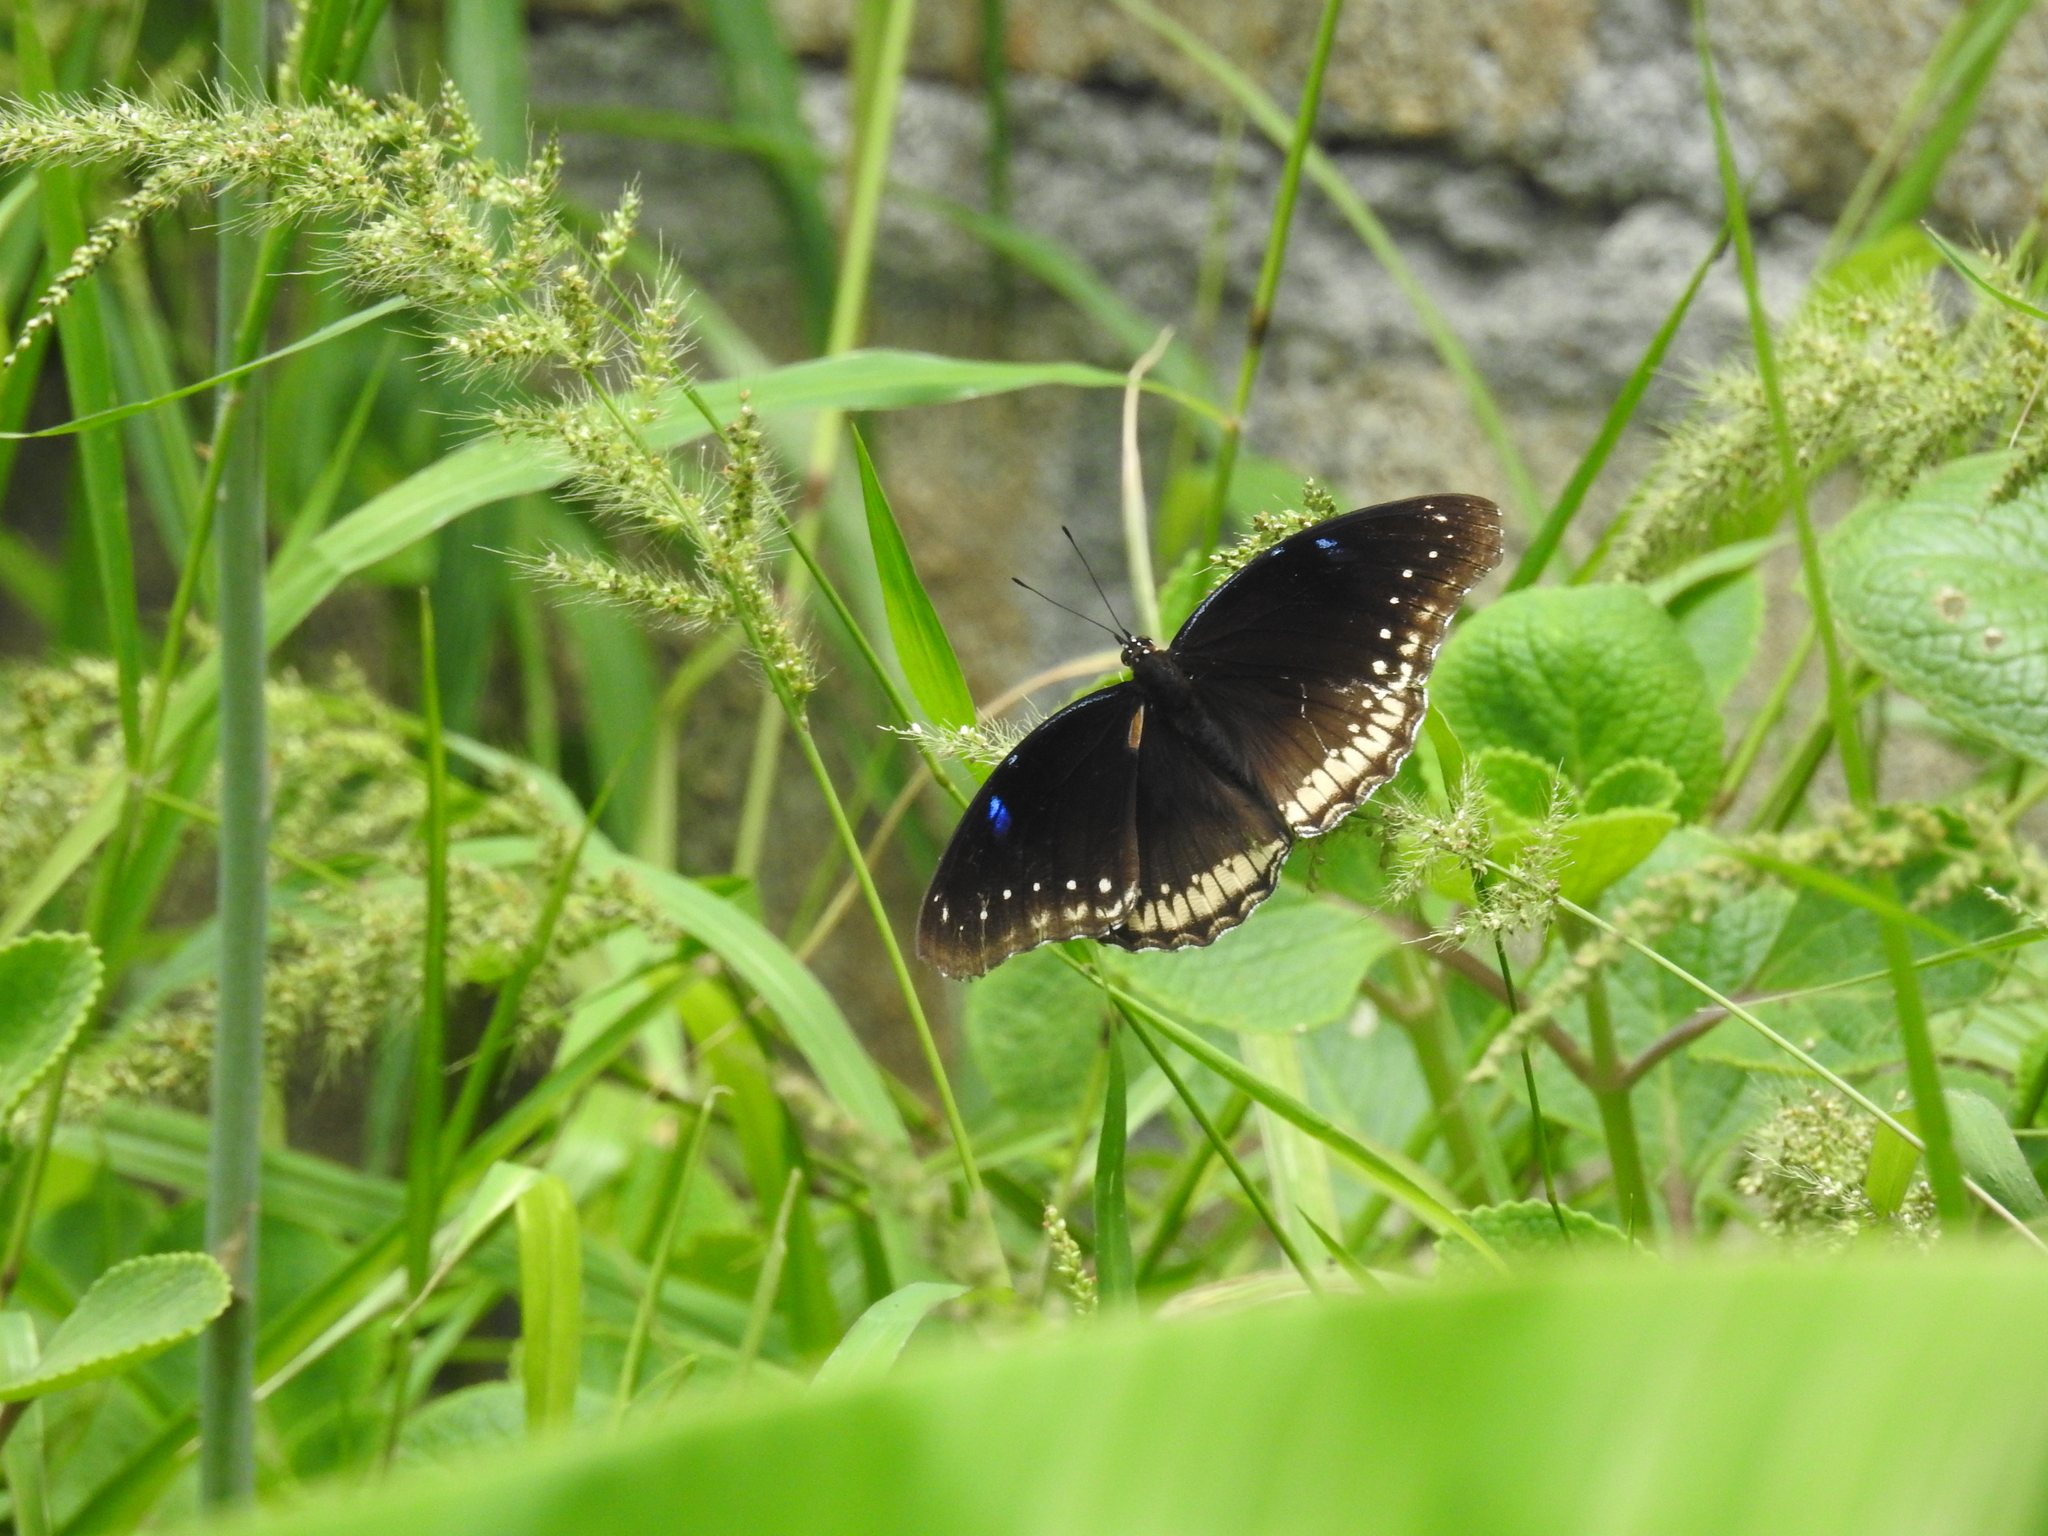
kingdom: Animalia
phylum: Arthropoda
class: Insecta
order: Lepidoptera
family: Nymphalidae
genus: Hypolimnas
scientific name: Hypolimnas bolina
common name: Great eggfly
